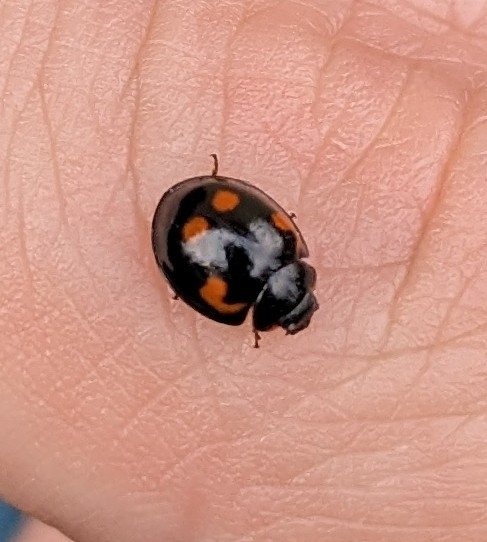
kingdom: Animalia
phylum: Arthropoda
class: Insecta
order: Coleoptera
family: Coccinellidae
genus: Brumus
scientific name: Brumus quadripustulatus
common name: Ladybird beetle
